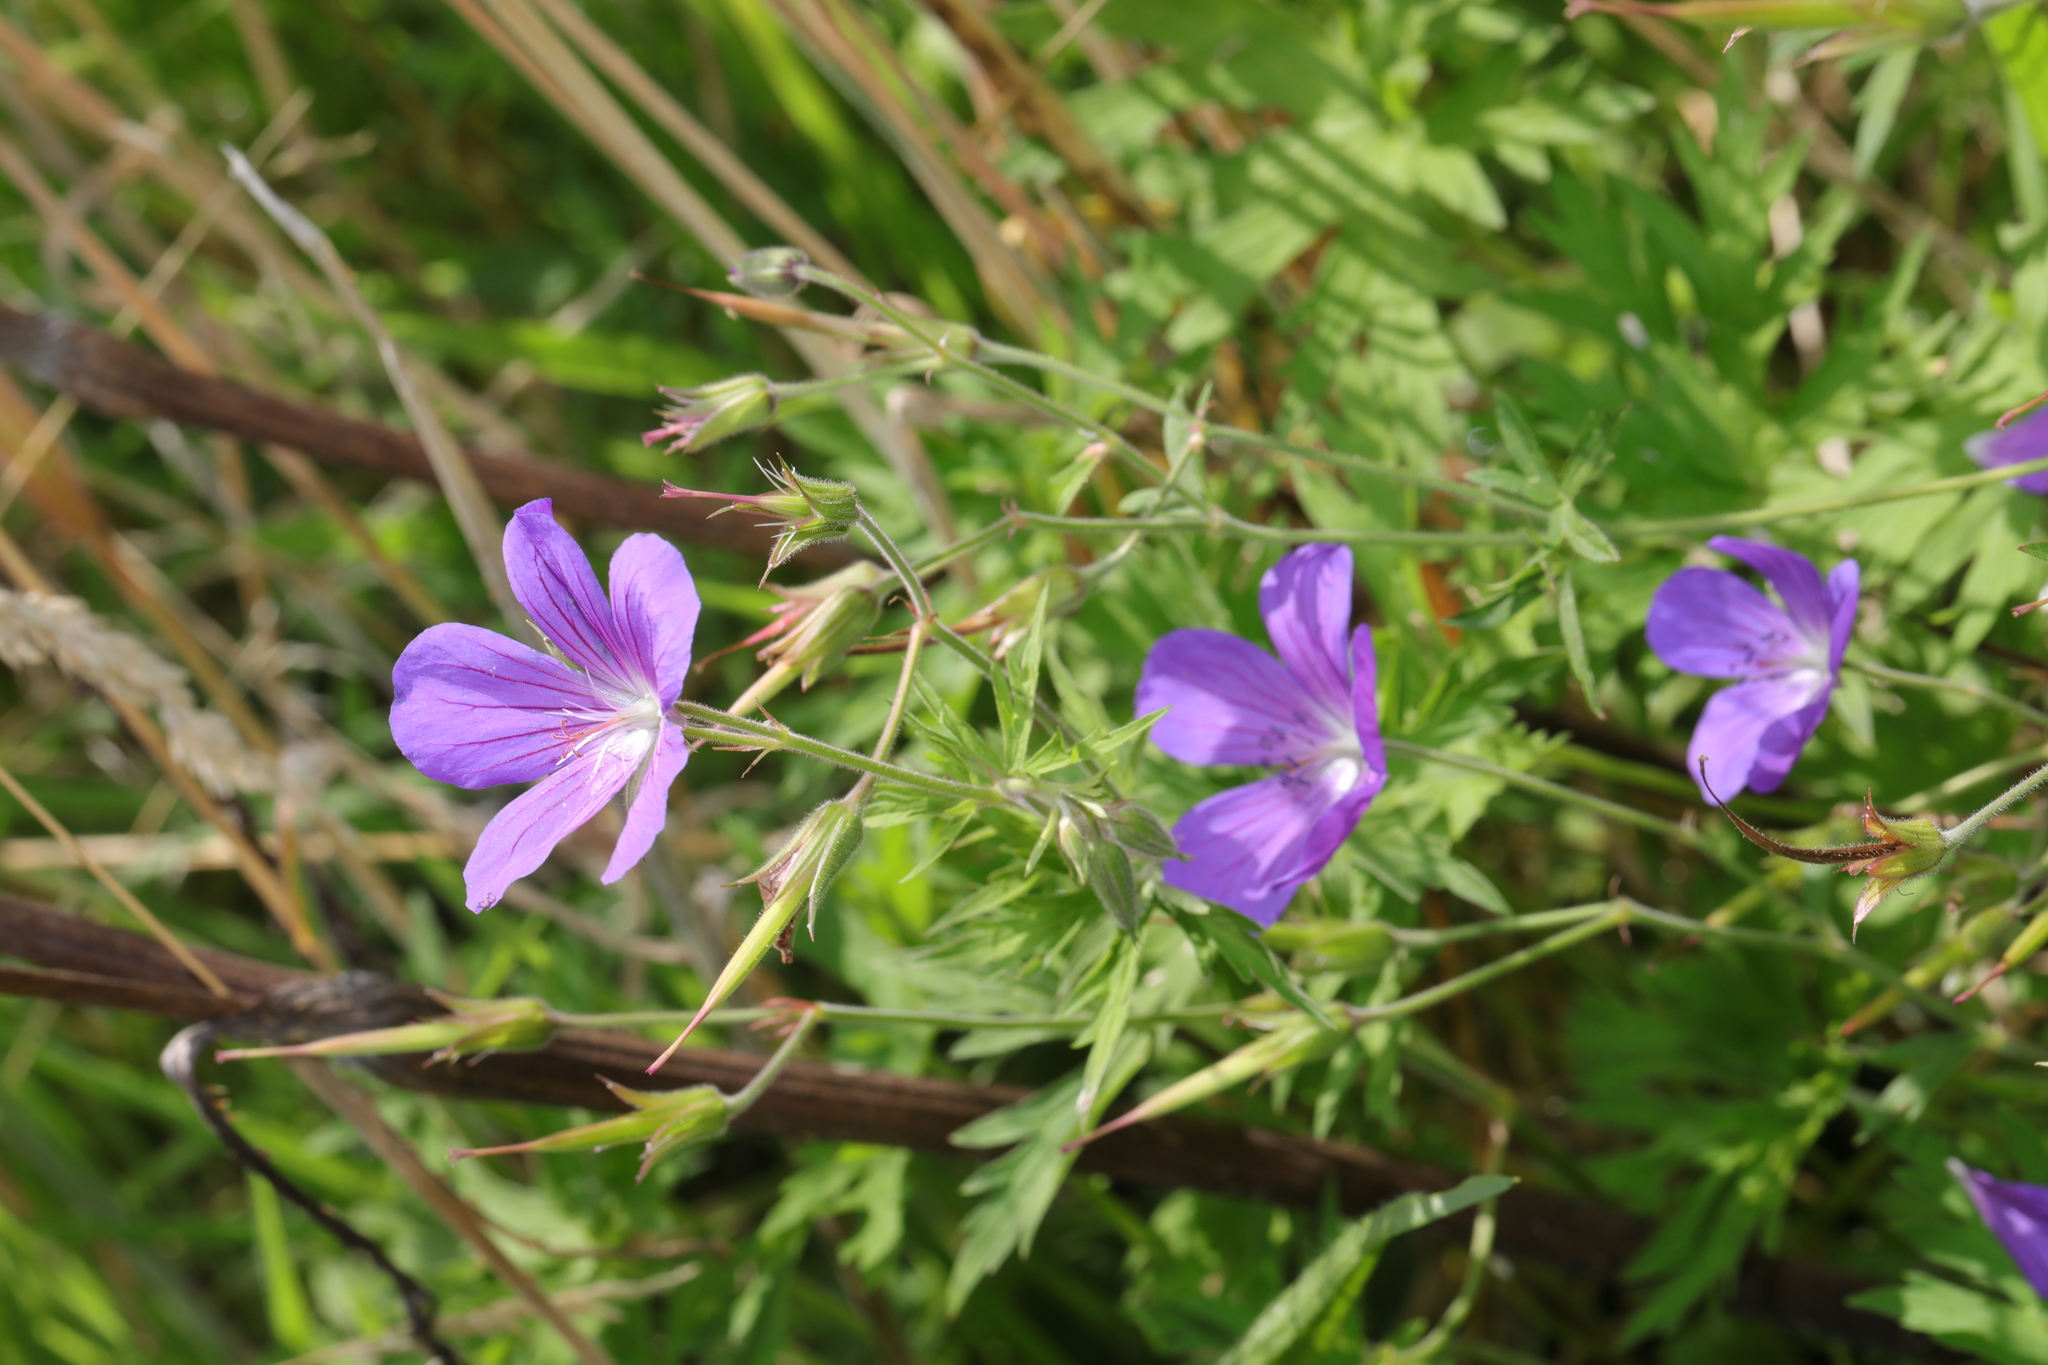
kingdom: Plantae
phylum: Tracheophyta
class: Magnoliopsida
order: Geraniales
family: Geraniaceae
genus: Geranium
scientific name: Geranium pratense
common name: Meadow crane's-bill
